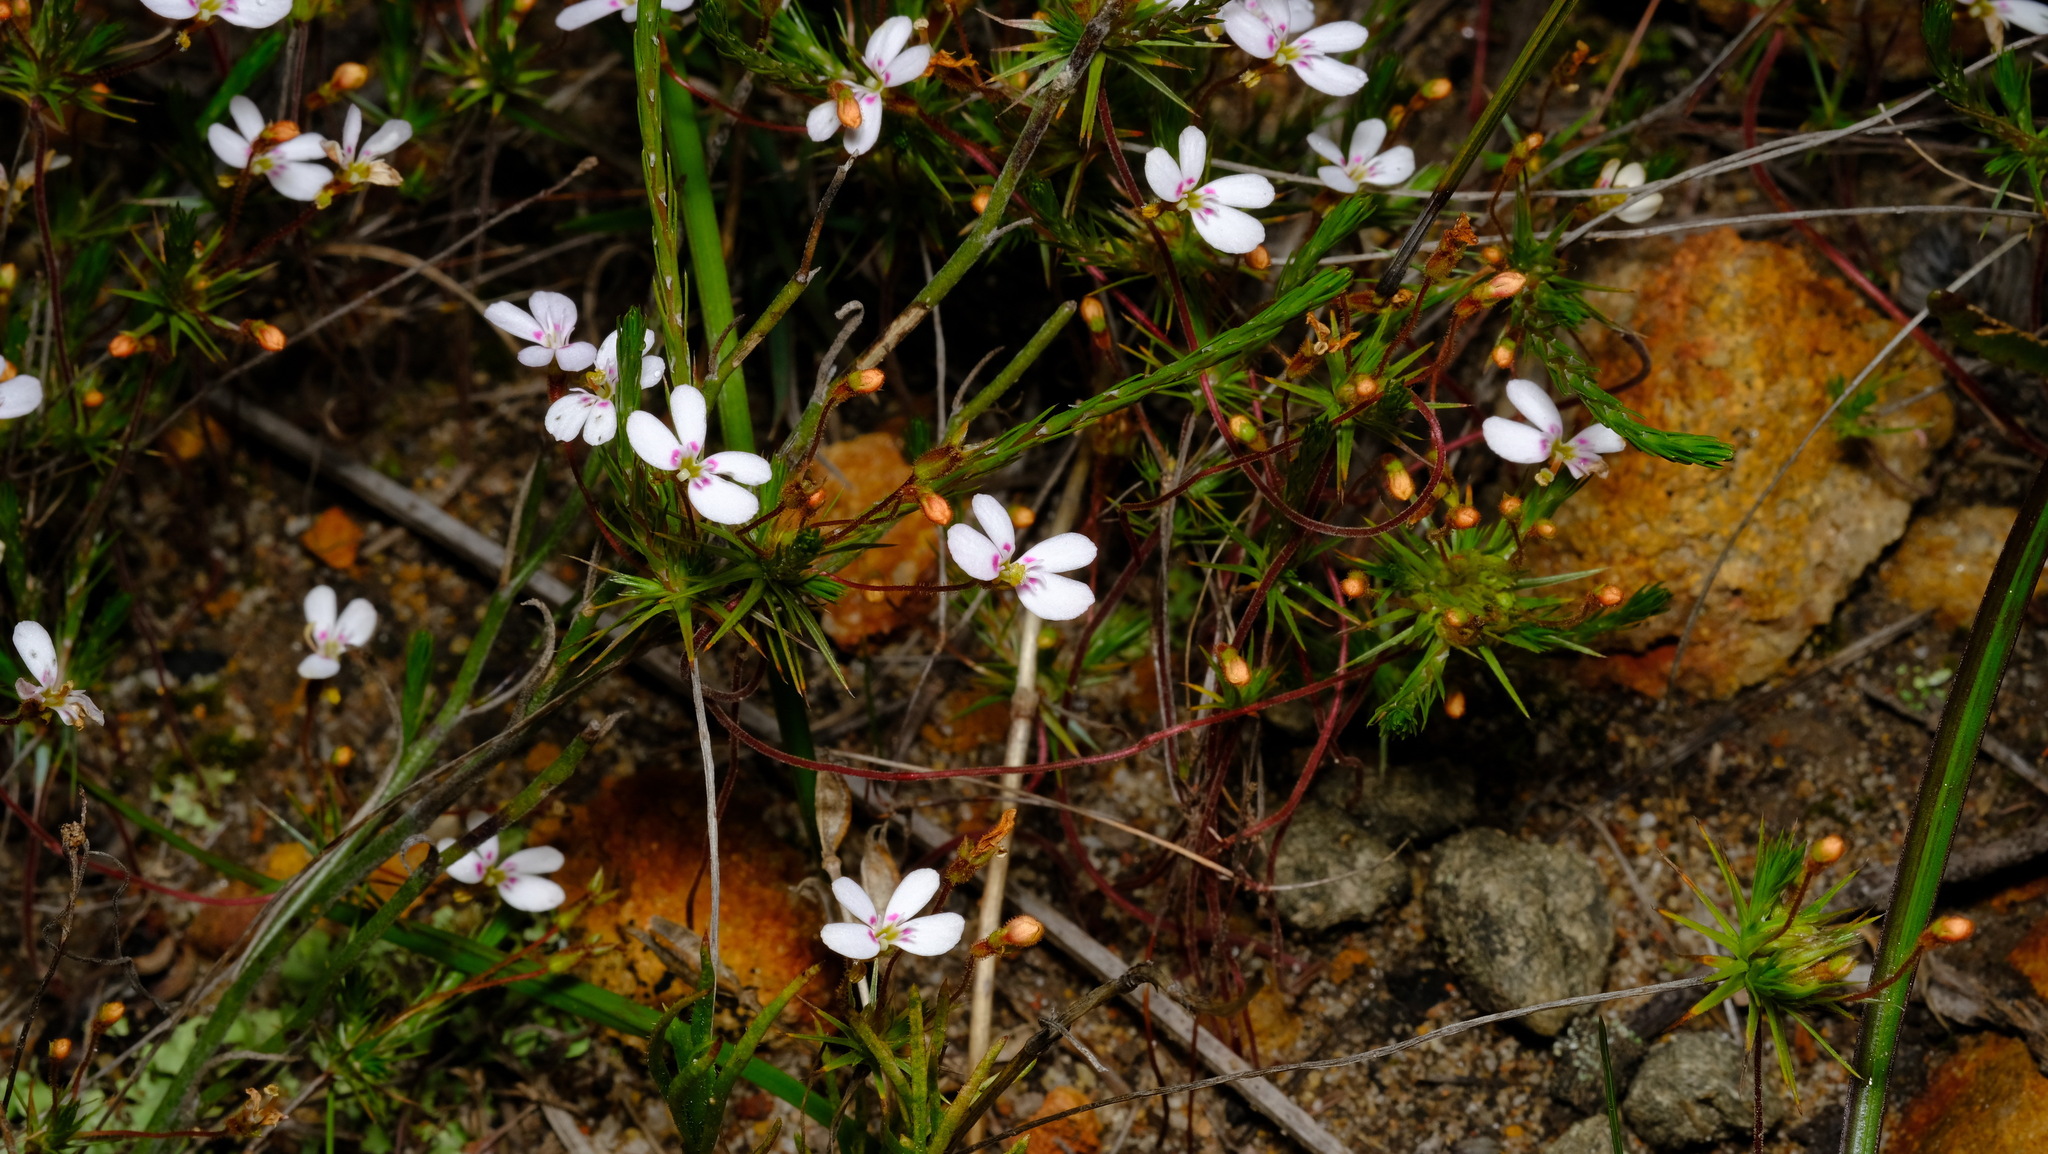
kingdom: Plantae
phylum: Tracheophyta
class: Magnoliopsida
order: Asterales
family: Stylidiaceae
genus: Stylidium
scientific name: Stylidium flagellum
